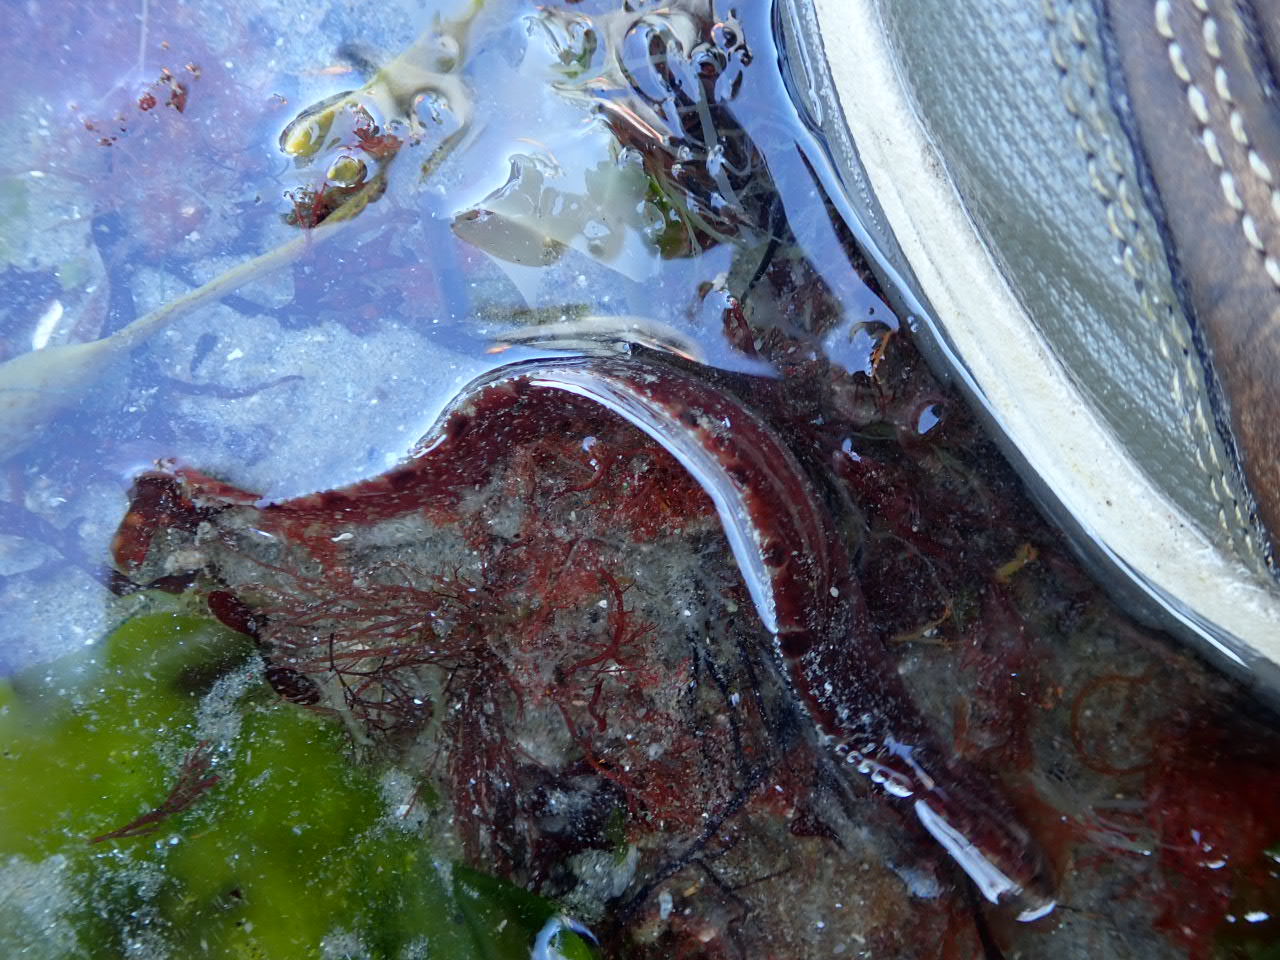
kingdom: Animalia
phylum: Chordata
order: Perciformes
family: Pholidae
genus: Pholis
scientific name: Pholis gunnellus
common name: Butterfish
